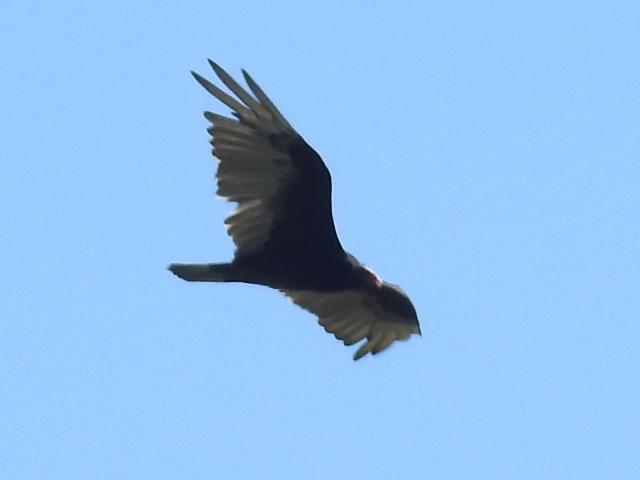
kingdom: Animalia
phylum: Chordata
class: Aves
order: Accipitriformes
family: Cathartidae
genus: Cathartes
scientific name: Cathartes aura
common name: Turkey vulture
